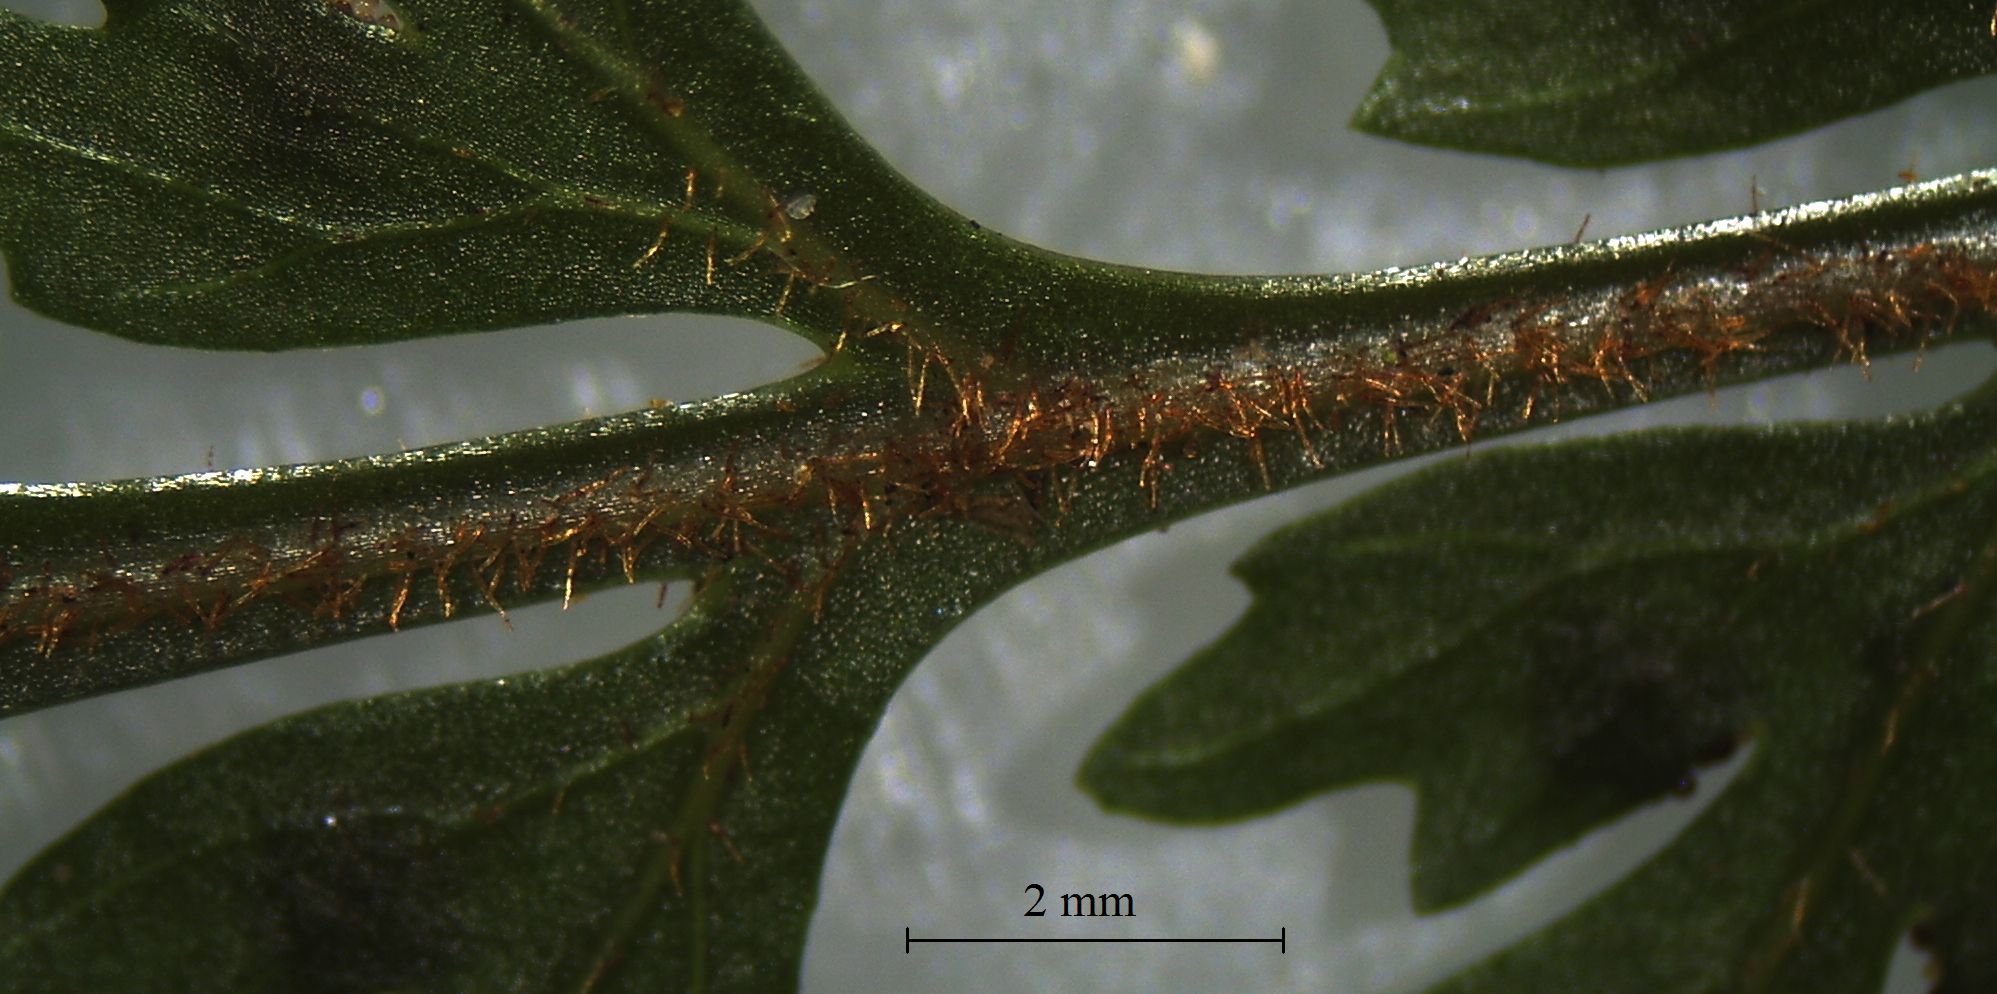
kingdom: Plantae
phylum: Tracheophyta
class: Polypodiopsida
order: Polypodiales
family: Dryopteridaceae
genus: Parapolystichum
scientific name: Parapolystichum glabellum
